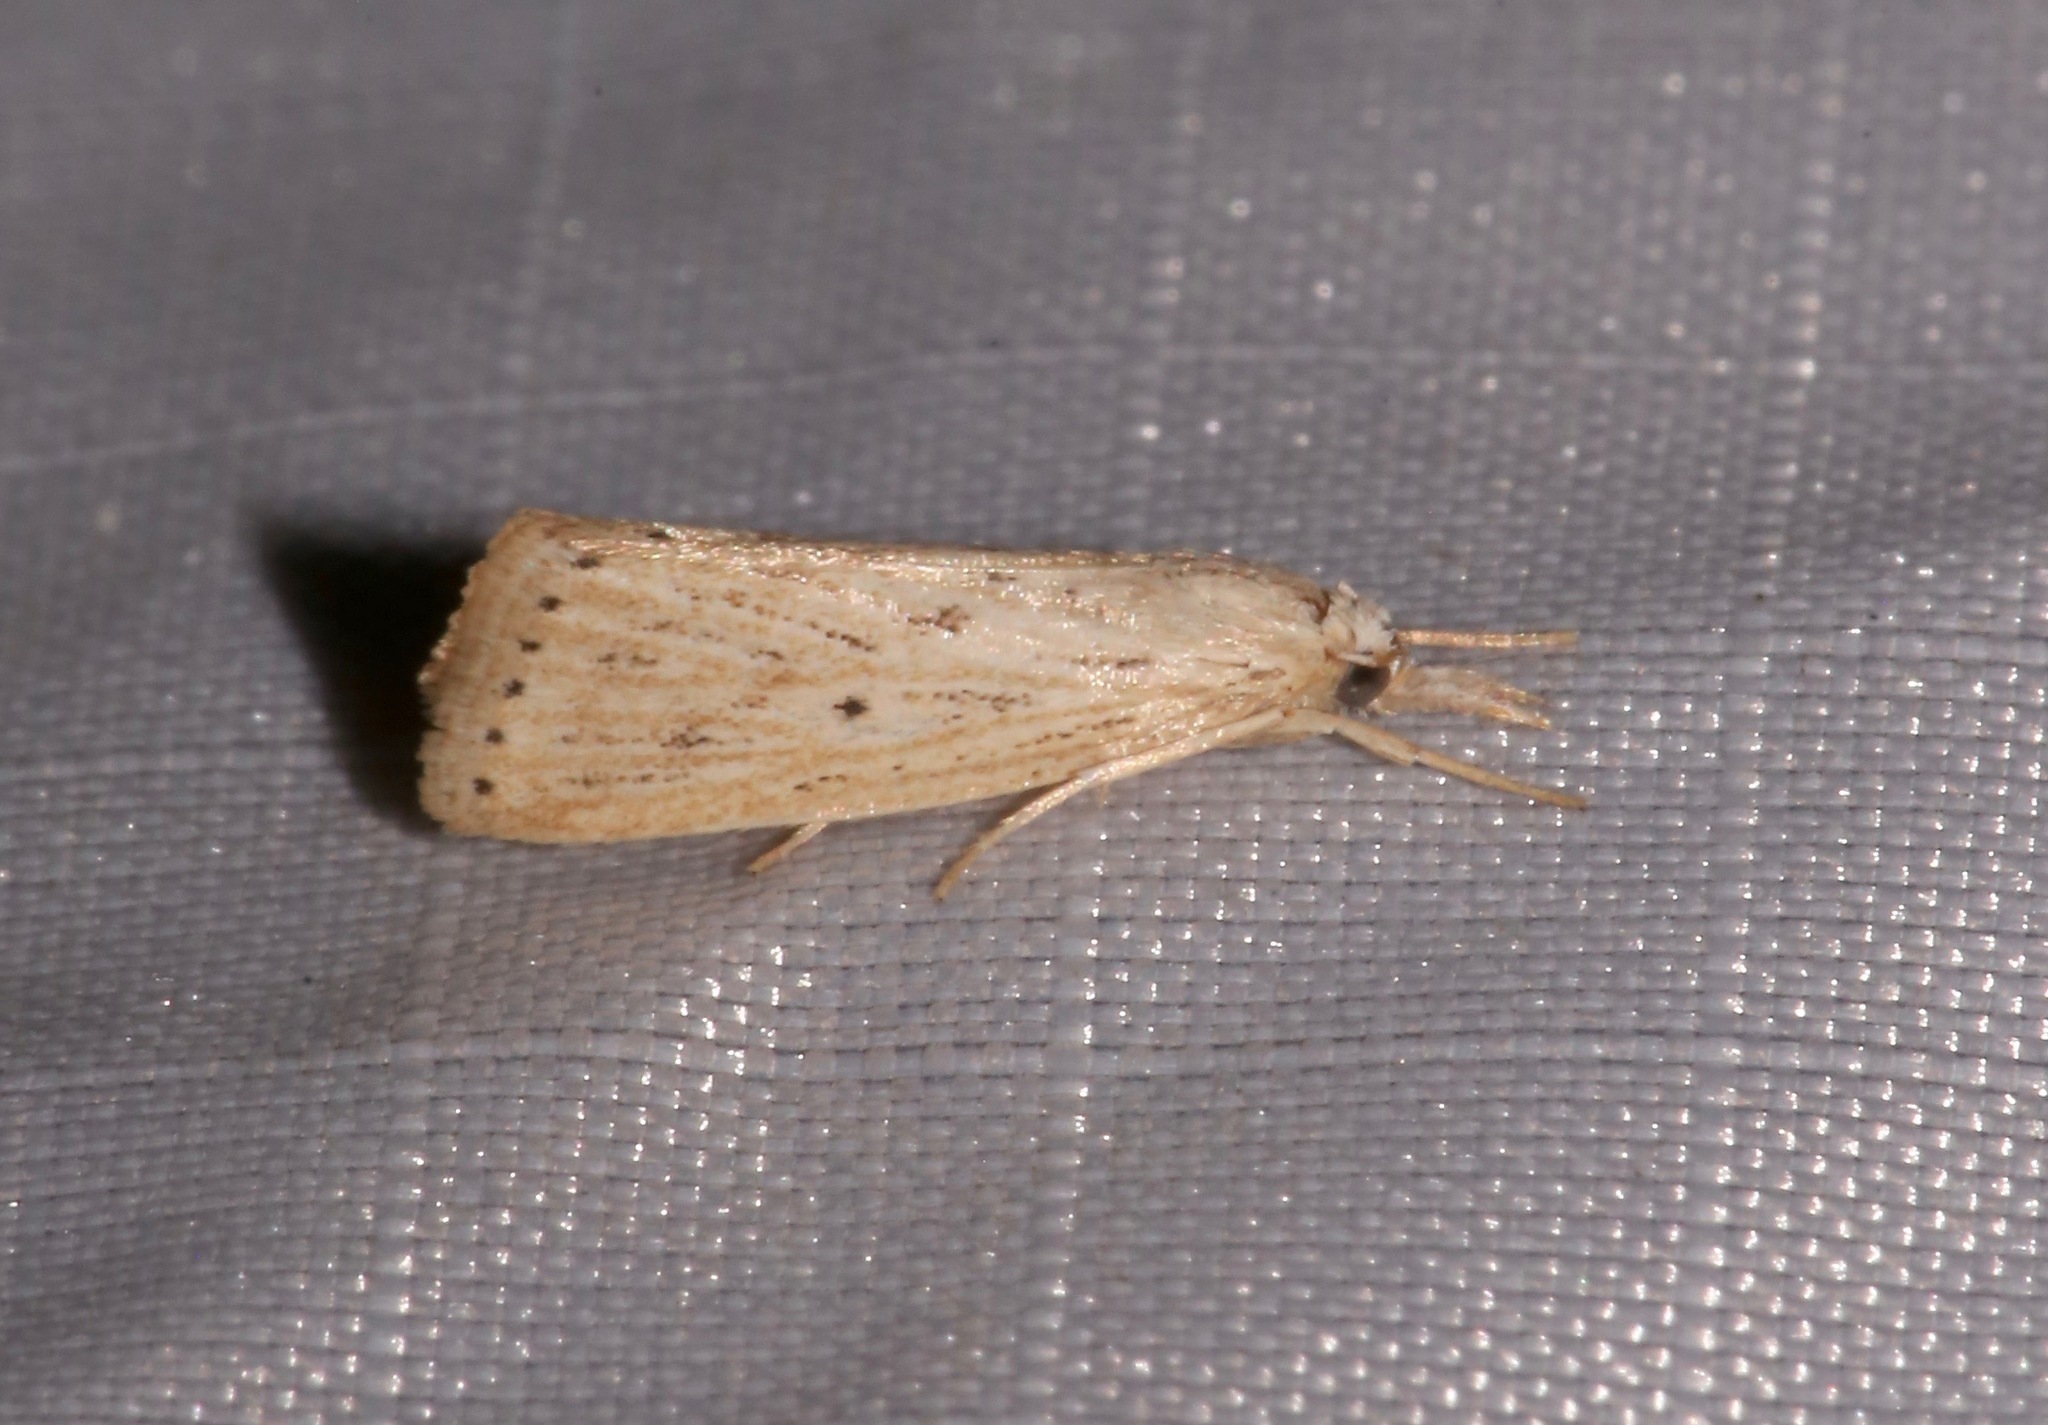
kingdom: Animalia
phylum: Arthropoda
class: Insecta
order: Lepidoptera
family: Crambidae
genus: Diatraea
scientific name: Diatraea lisetta
